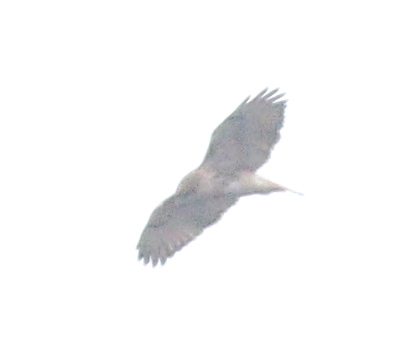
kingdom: Animalia
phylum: Chordata
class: Aves
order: Accipitriformes
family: Accipitridae
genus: Buteo
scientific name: Buteo jamaicensis
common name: Red-tailed hawk
